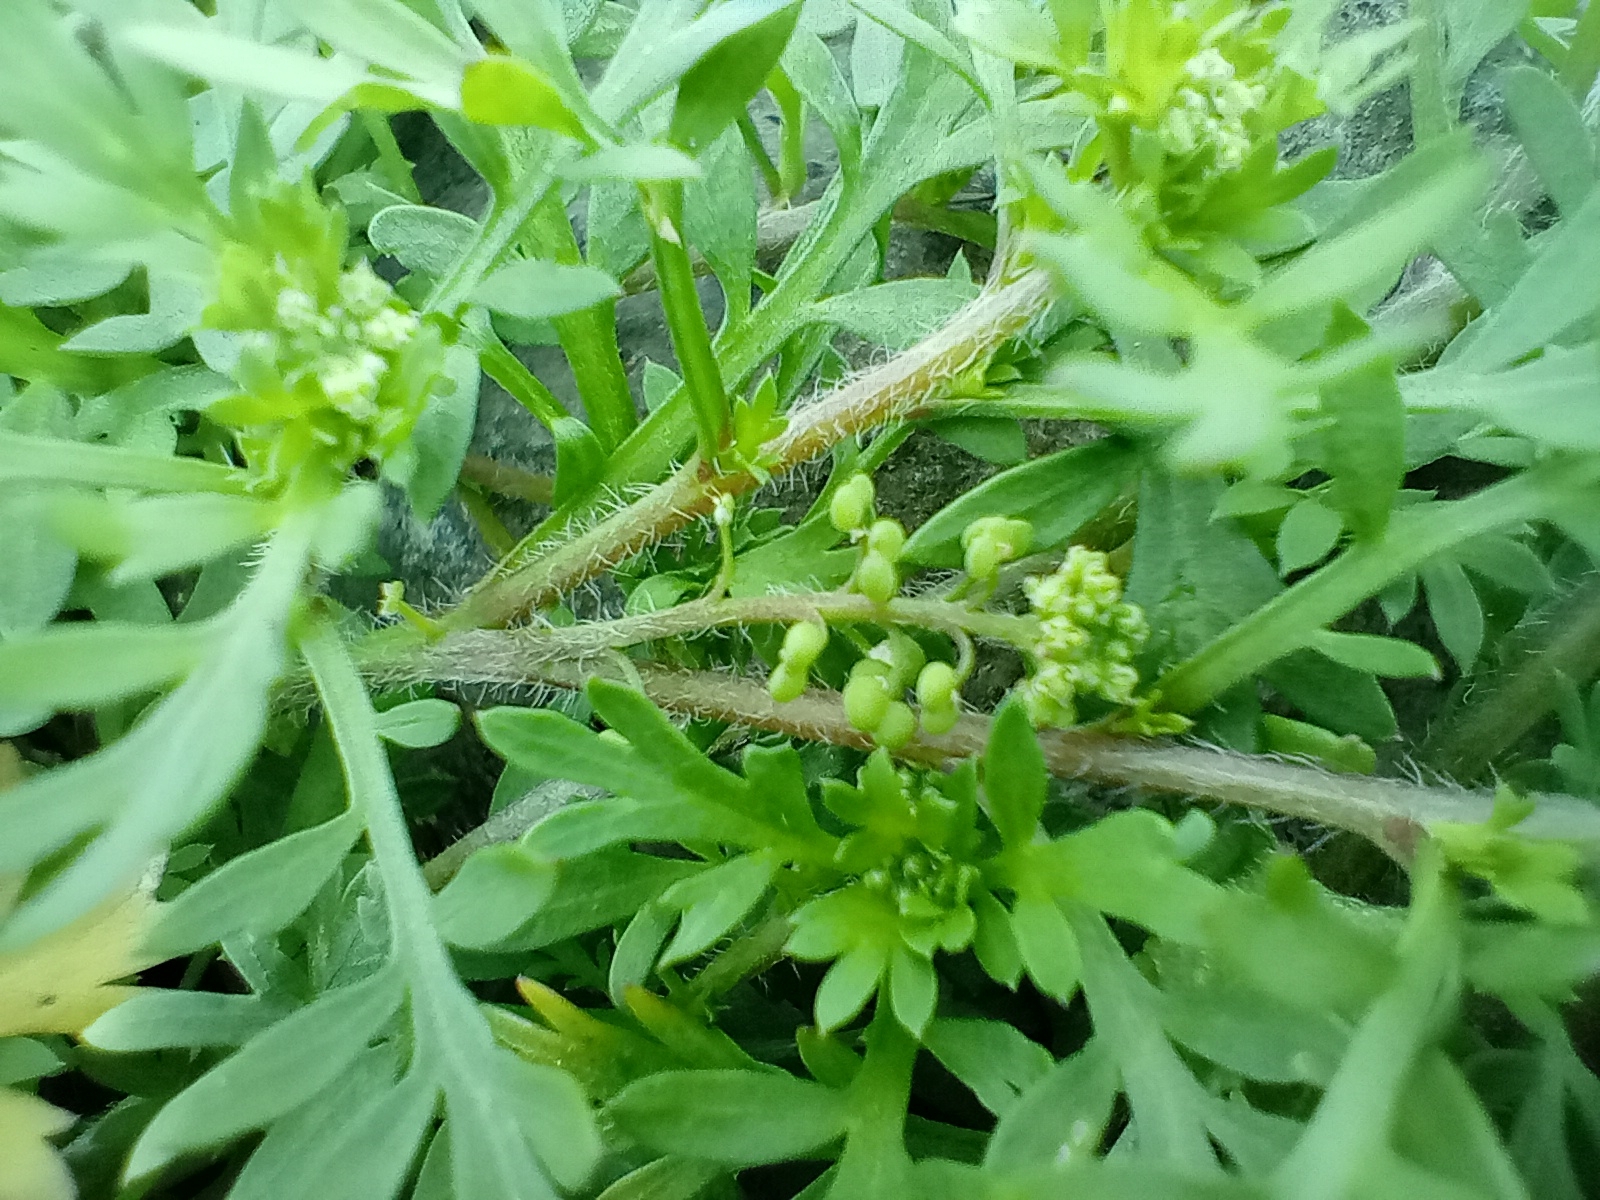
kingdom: Plantae
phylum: Tracheophyta
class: Magnoliopsida
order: Brassicales
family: Brassicaceae
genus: Lepidium
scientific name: Lepidium didymum
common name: Lesser swinecress
